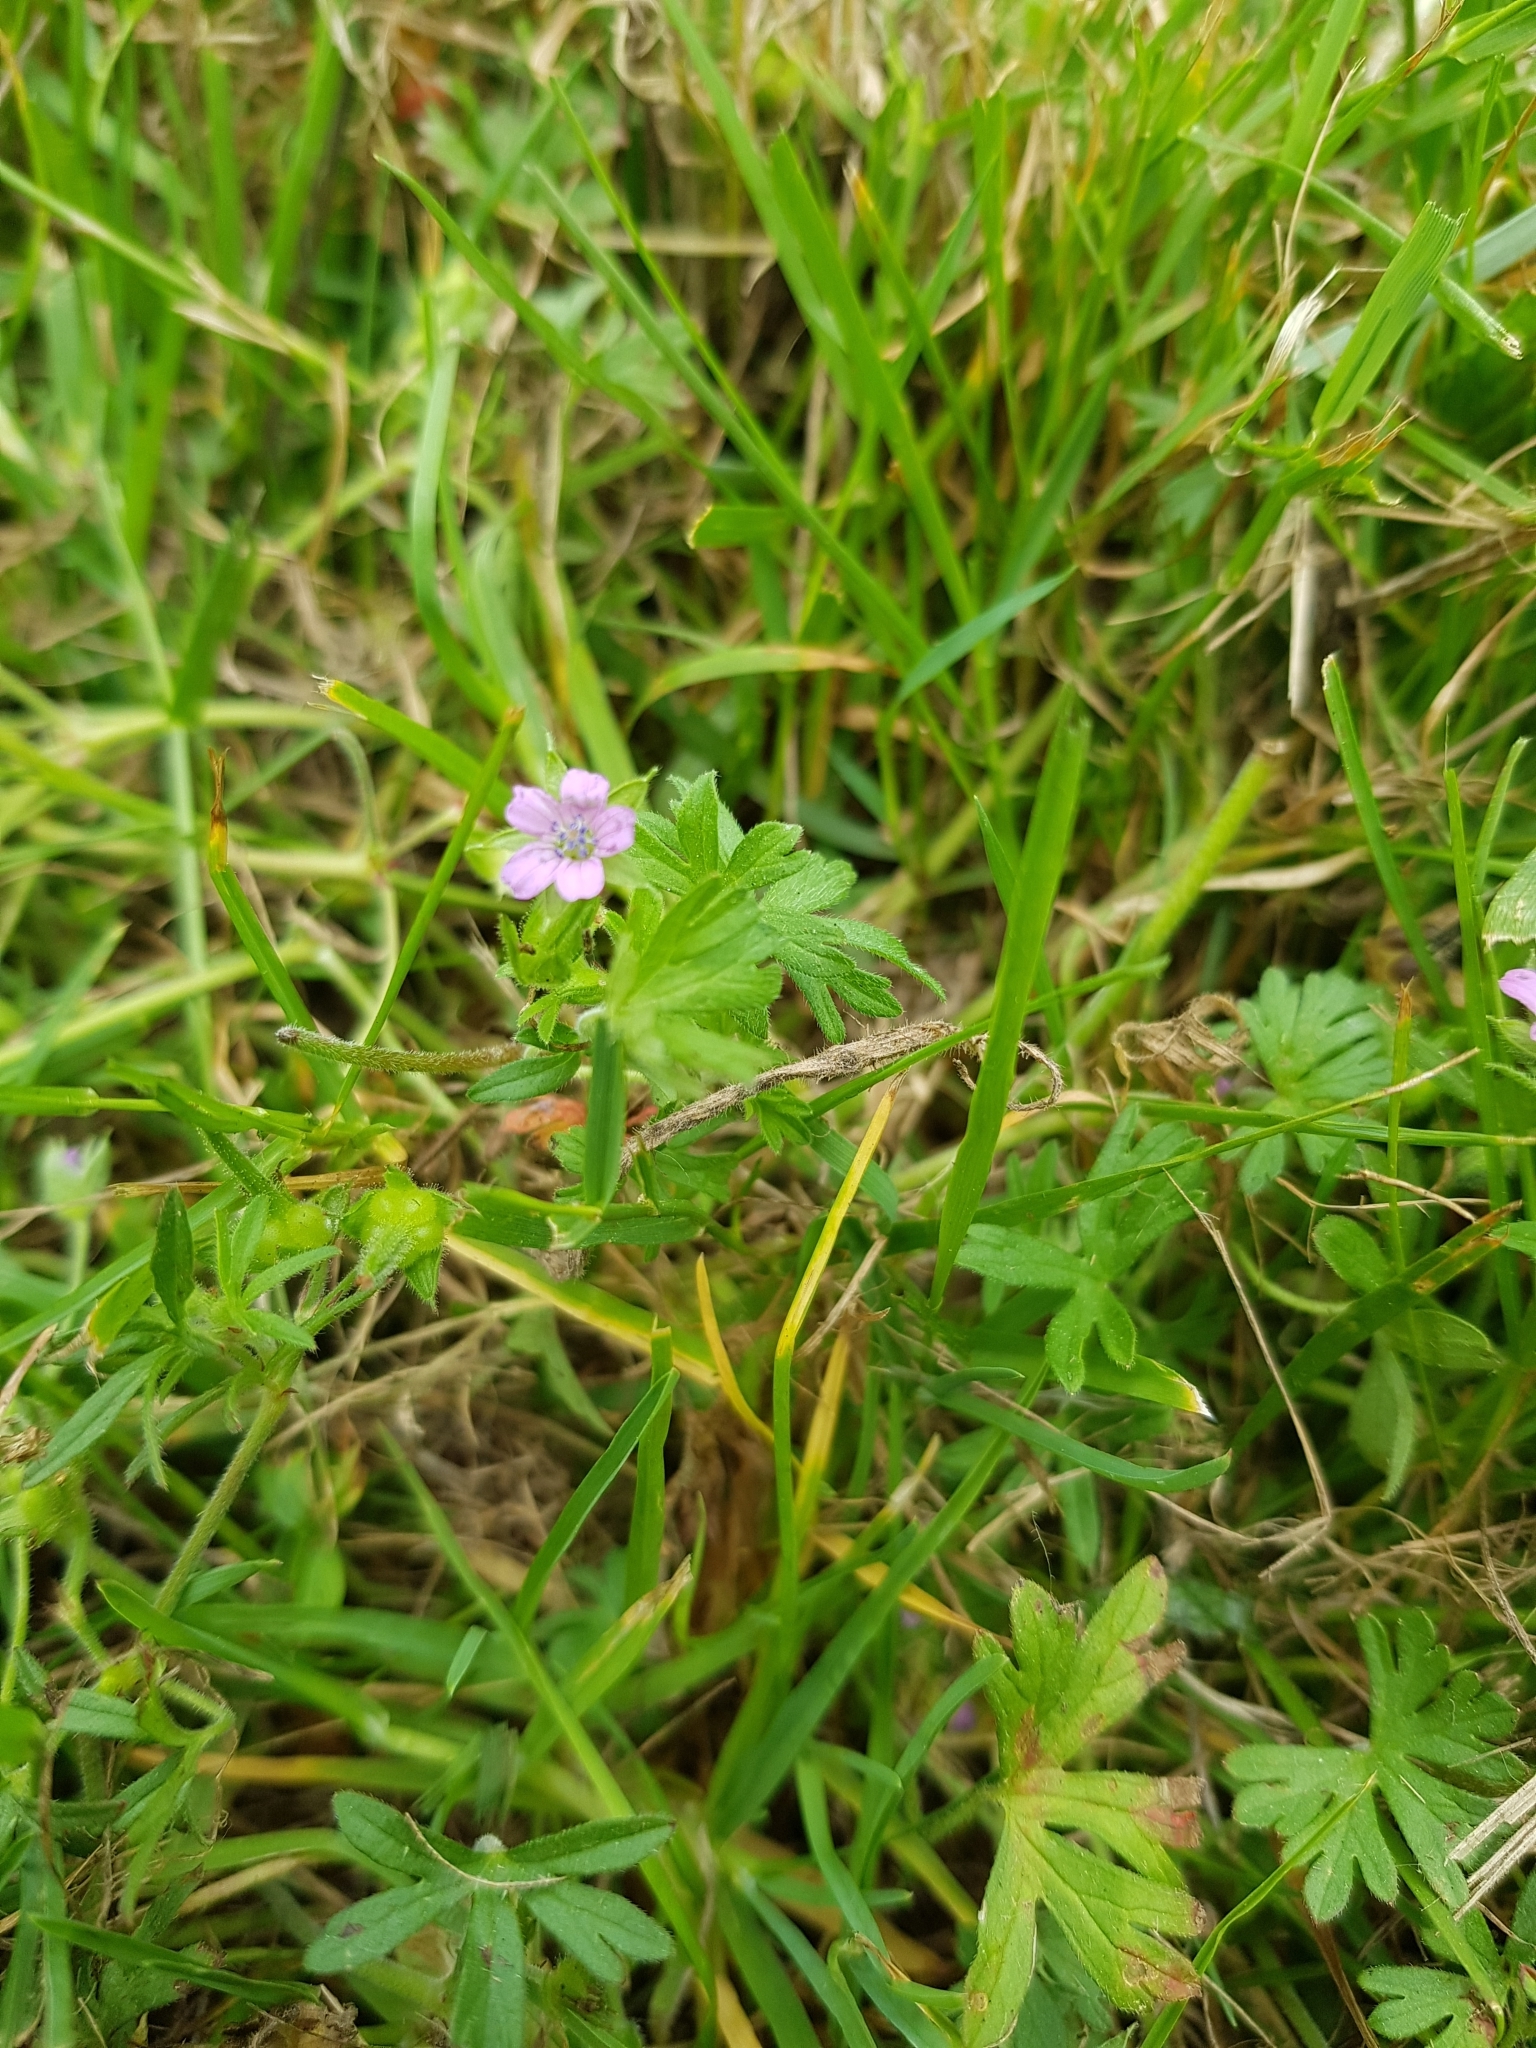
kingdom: Plantae
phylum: Tracheophyta
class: Magnoliopsida
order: Geraniales
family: Geraniaceae
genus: Geranium
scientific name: Geranium pusillum
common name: Small geranium
